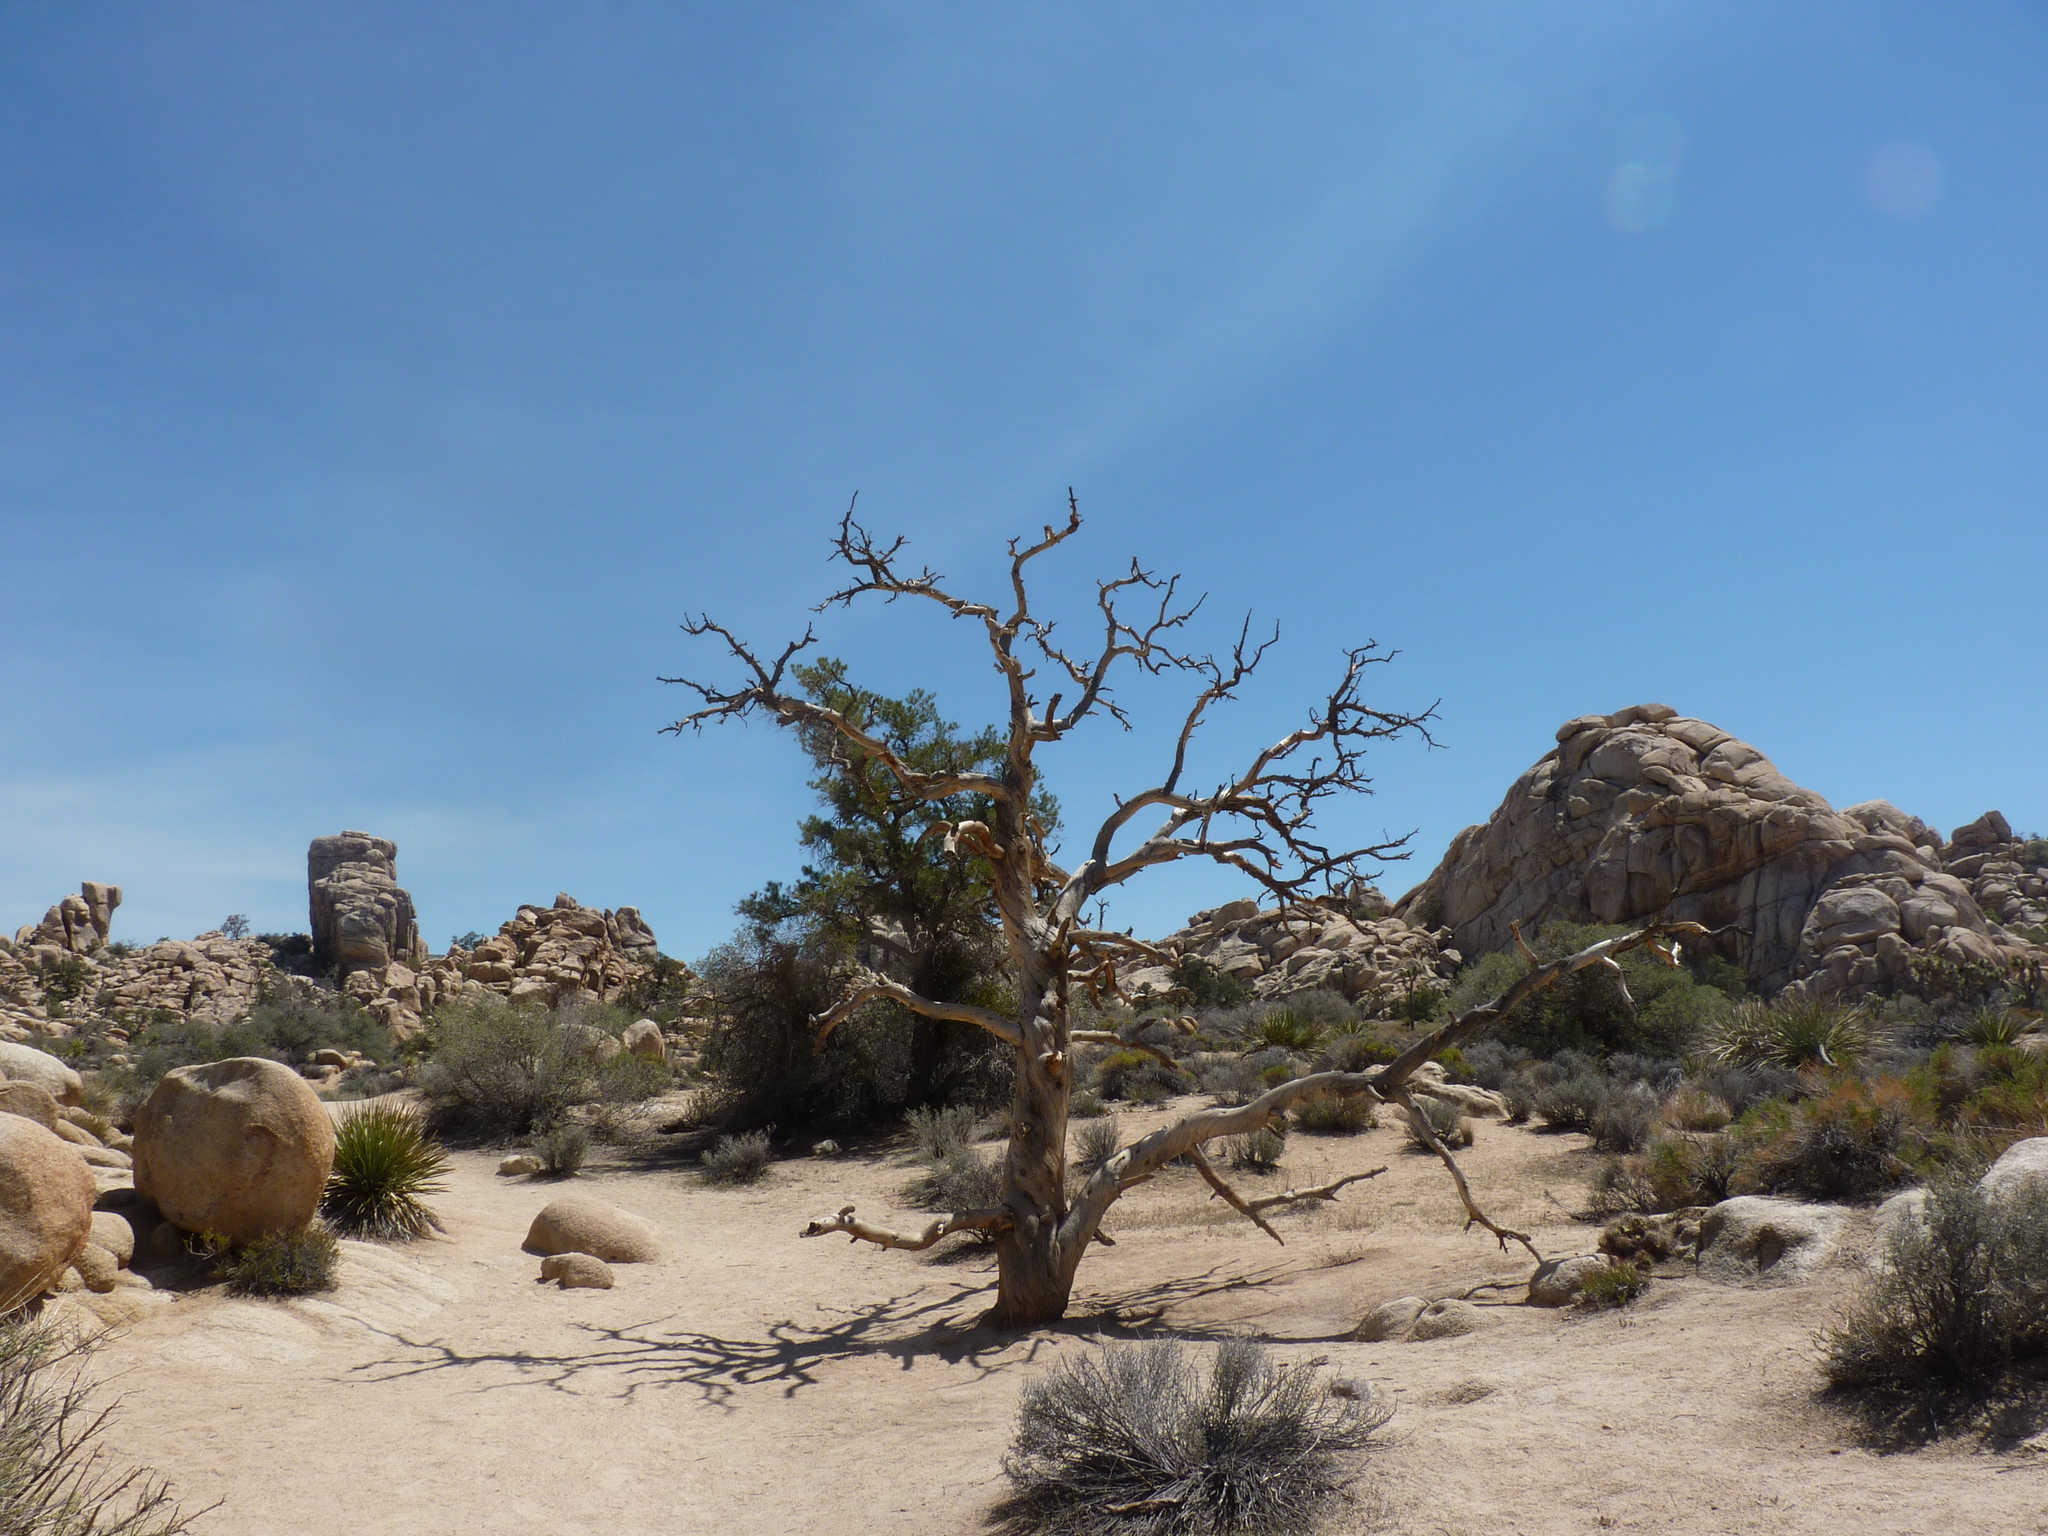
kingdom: Plantae
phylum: Tracheophyta
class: Pinopsida
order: Pinales
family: Pinaceae
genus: Pinus
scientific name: Pinus monophylla
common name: One-leaved nut pine
